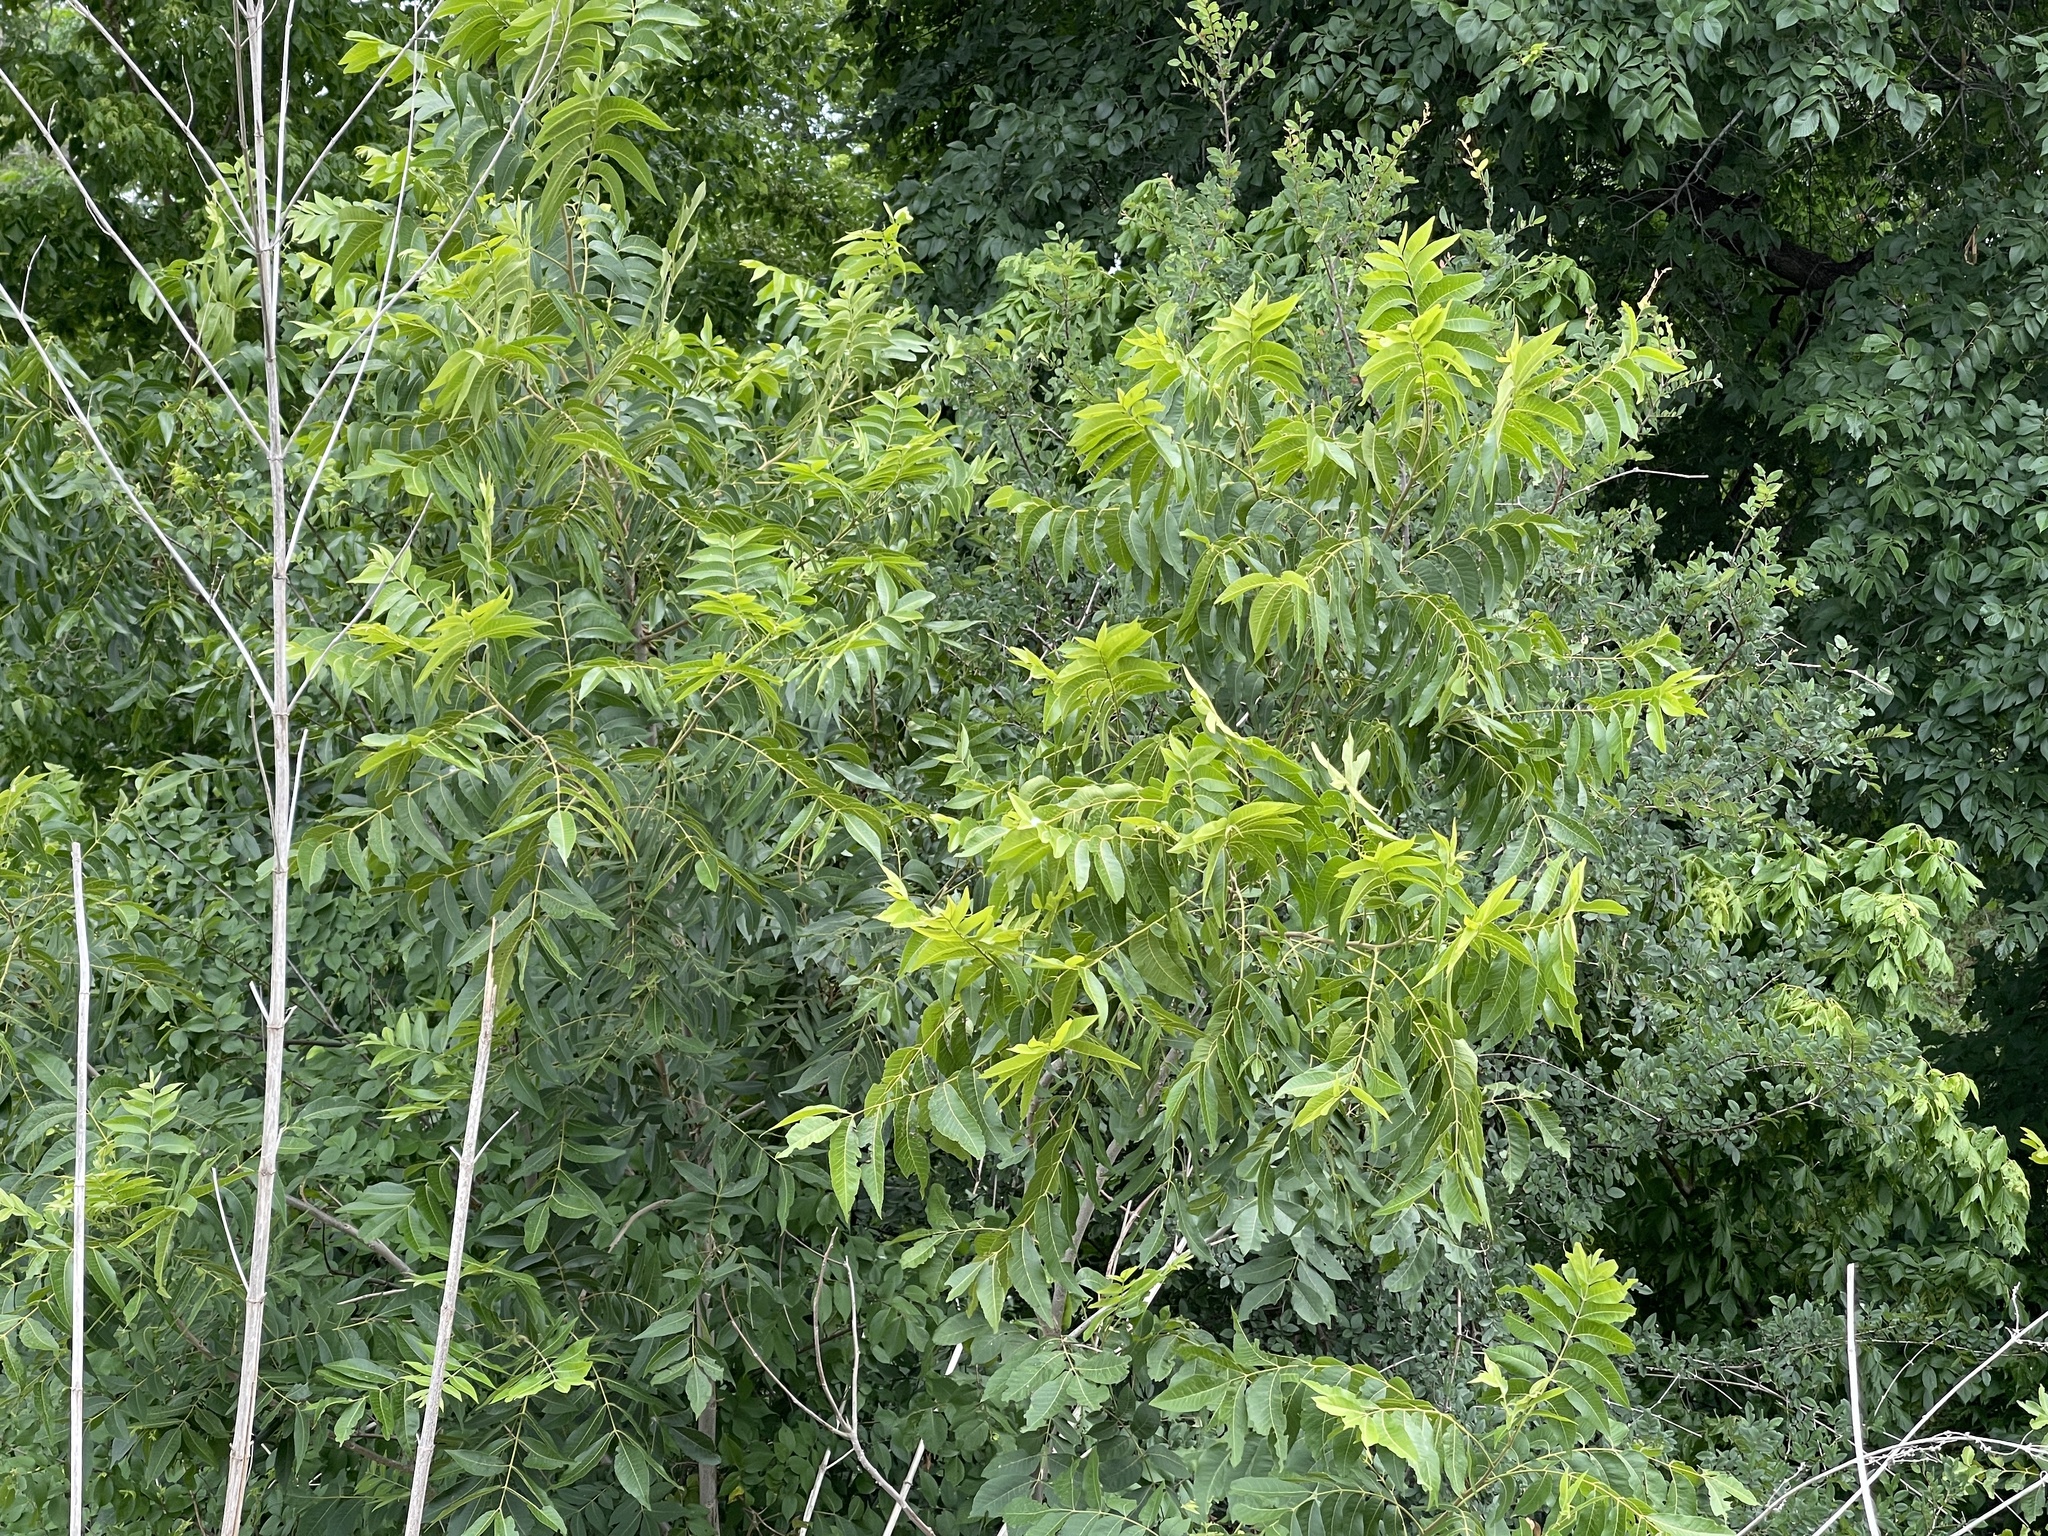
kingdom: Plantae
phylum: Tracheophyta
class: Magnoliopsida
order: Fagales
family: Juglandaceae
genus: Carya
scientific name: Carya illinoinensis
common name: Pecan
